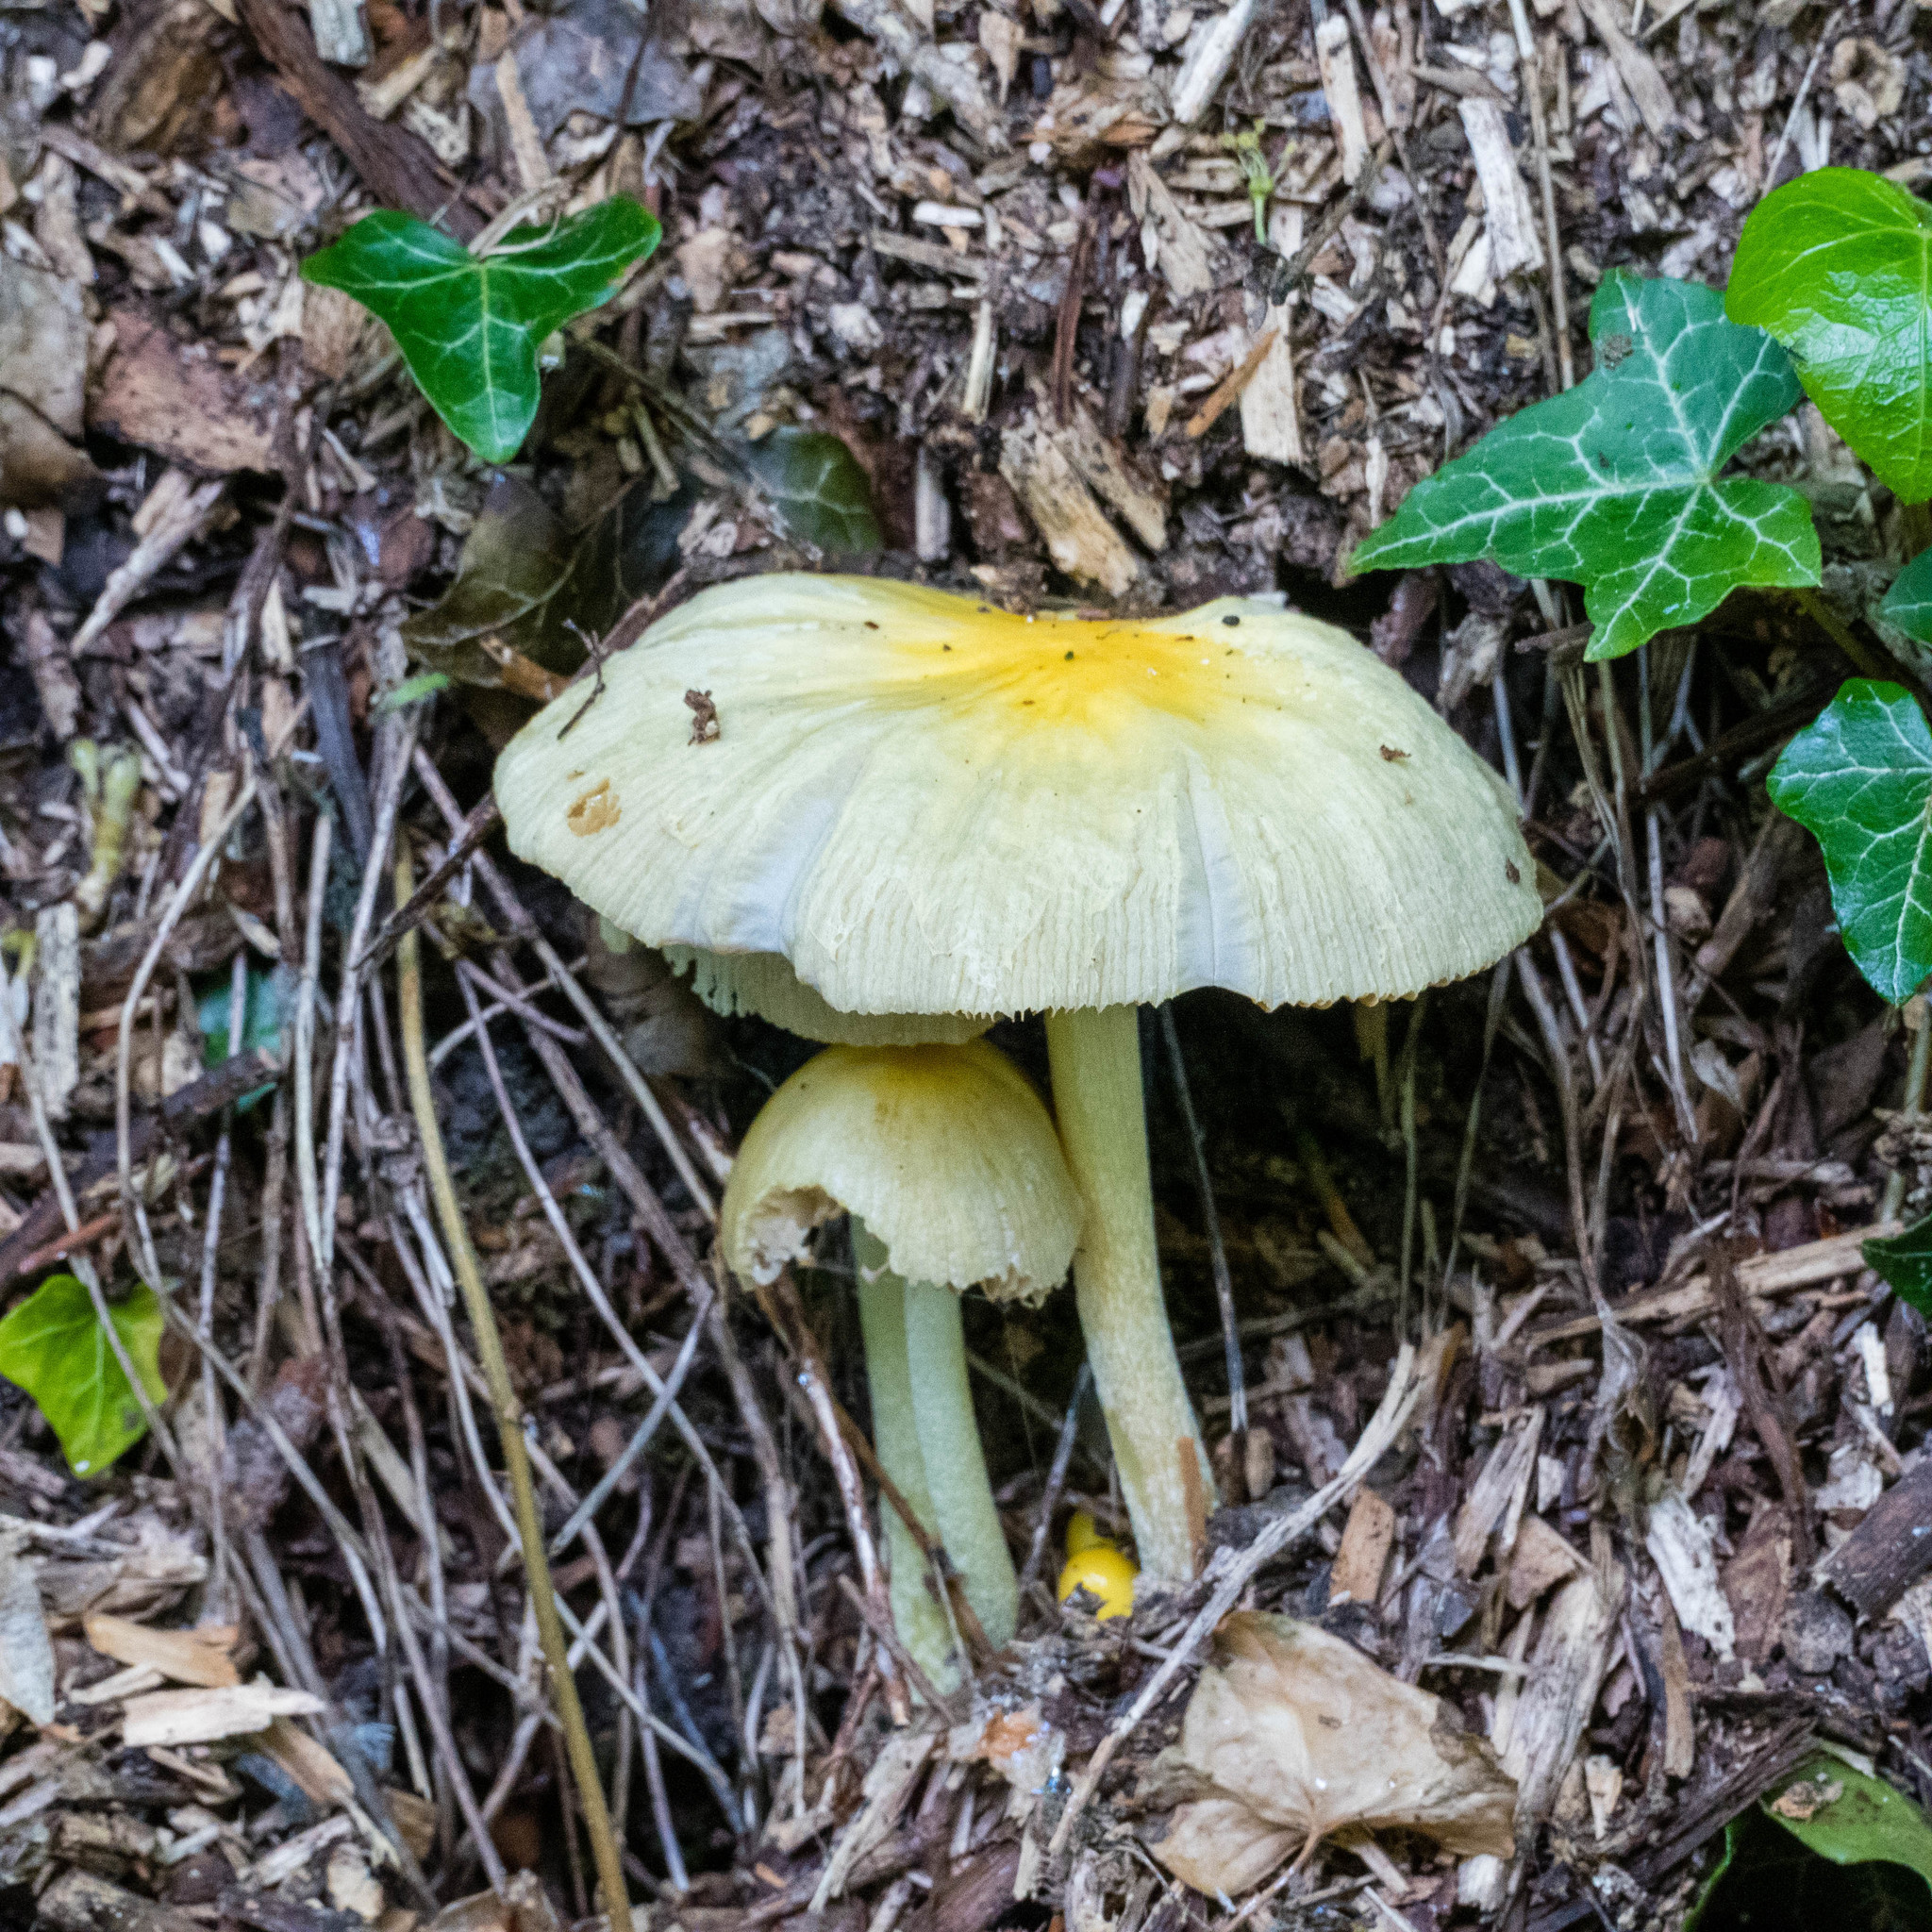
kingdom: Fungi
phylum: Basidiomycota
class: Agaricomycetes
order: Agaricales
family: Bolbitiaceae
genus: Bolbitius
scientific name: Bolbitius titubans
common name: Yellow fieldcap
